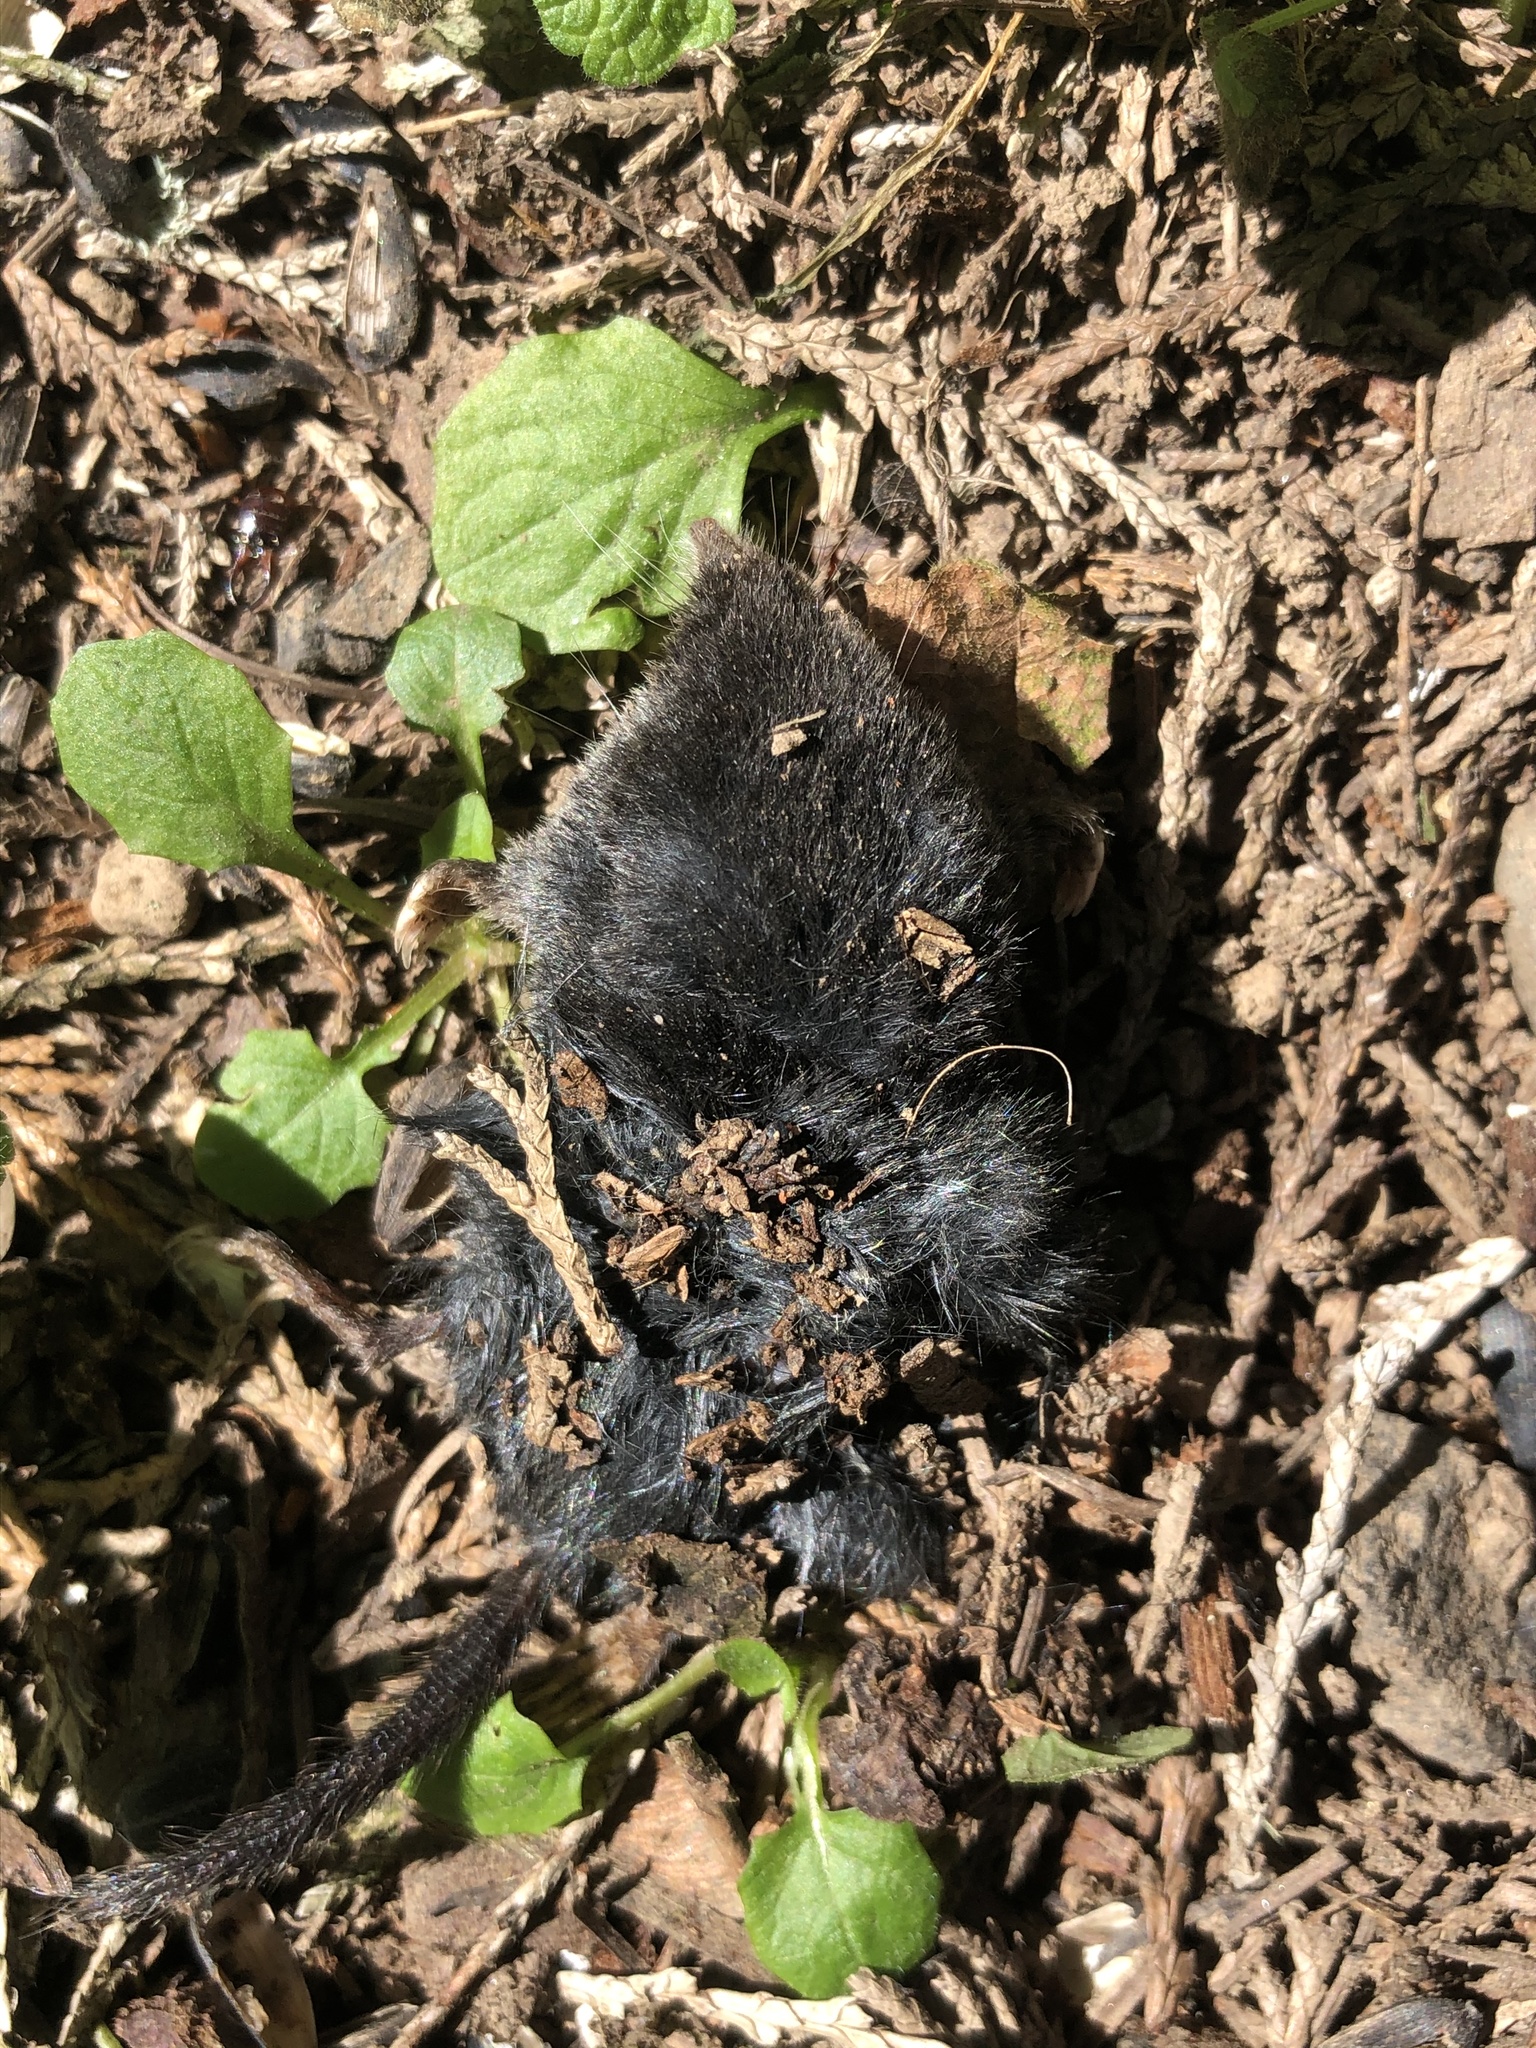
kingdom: Animalia
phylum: Chordata
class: Mammalia
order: Soricomorpha
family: Talpidae
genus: Neurotrichus
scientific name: Neurotrichus gibbsii
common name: American shrew mole
